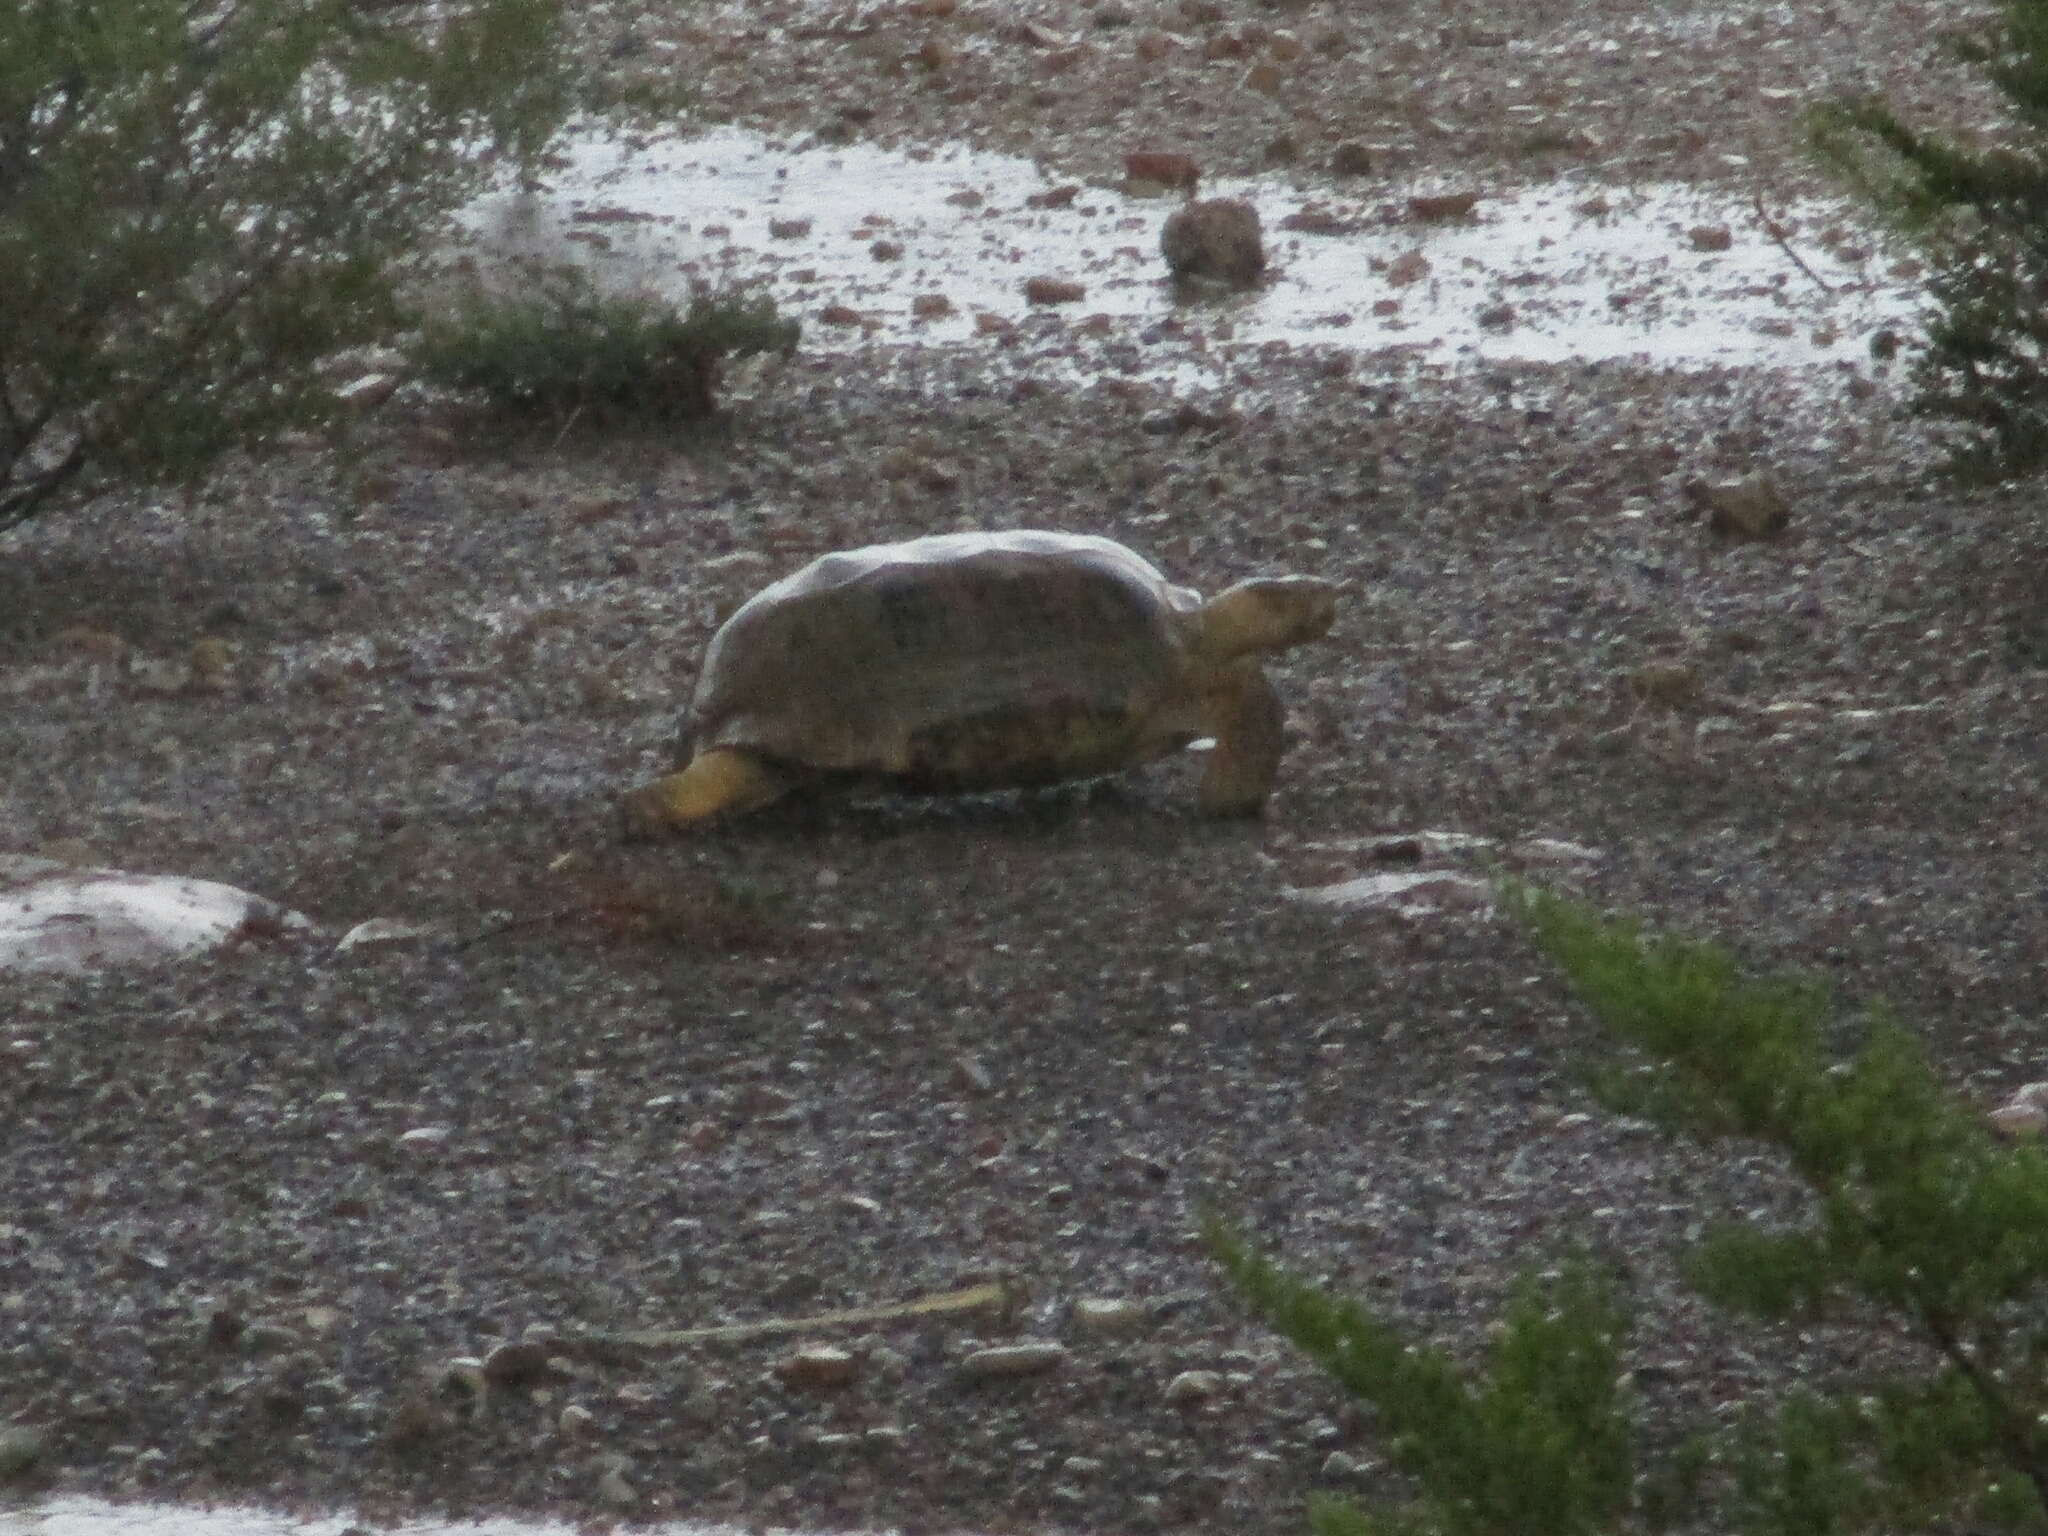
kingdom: Animalia
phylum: Chordata
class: Testudines
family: Testudinidae
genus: Gopherus
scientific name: Gopherus flavomarginatus
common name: Bolson tortoise
